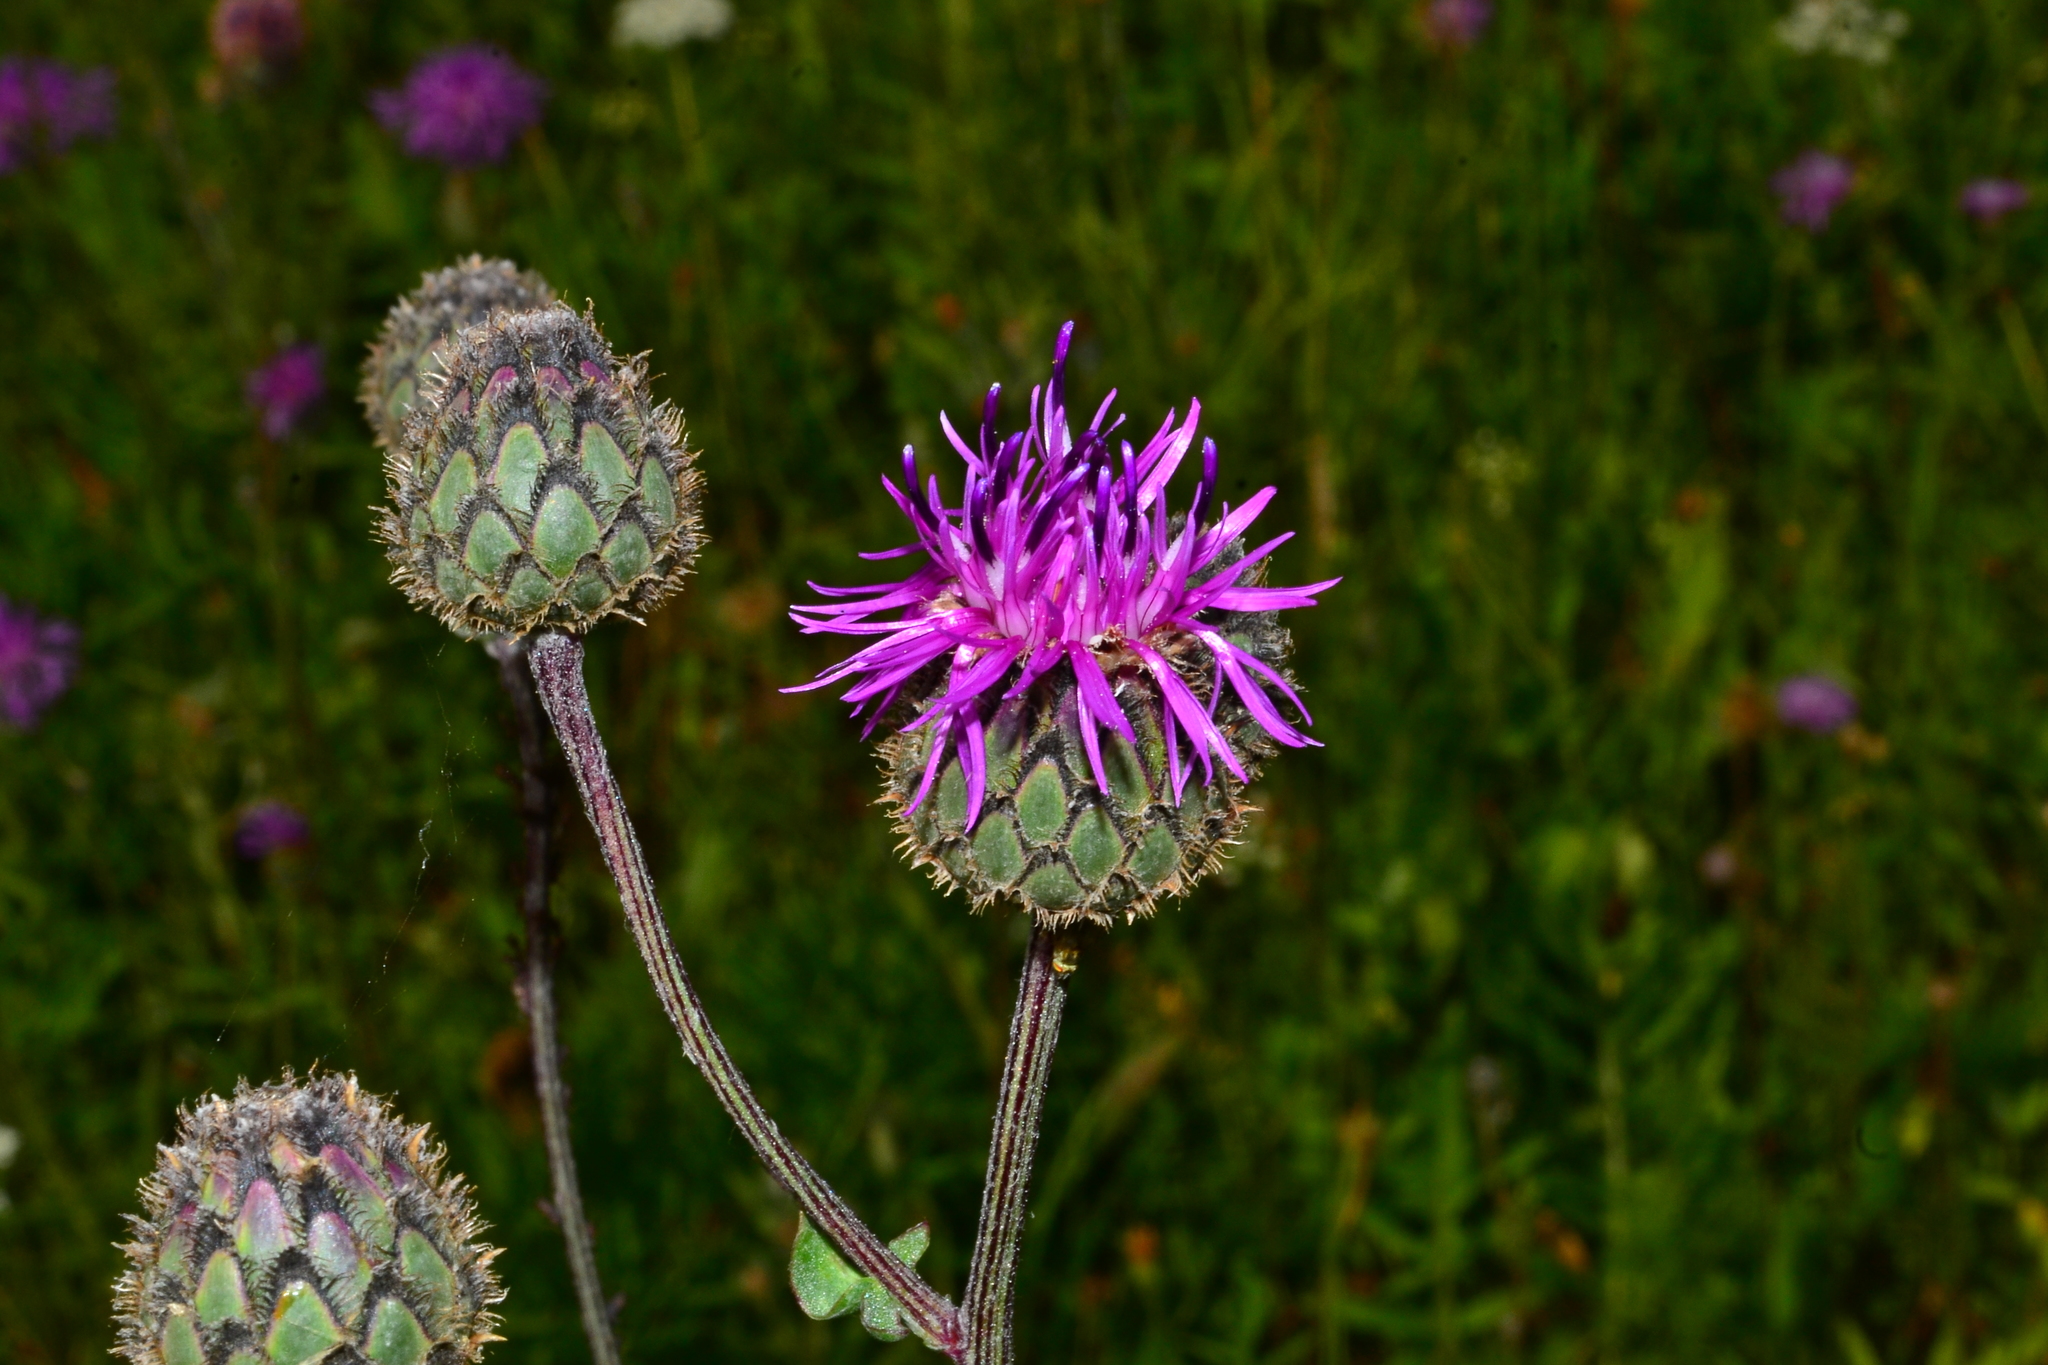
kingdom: Plantae
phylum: Tracheophyta
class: Magnoliopsida
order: Asterales
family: Asteraceae
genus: Centaurea
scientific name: Centaurea scabiosa
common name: Greater knapweed
